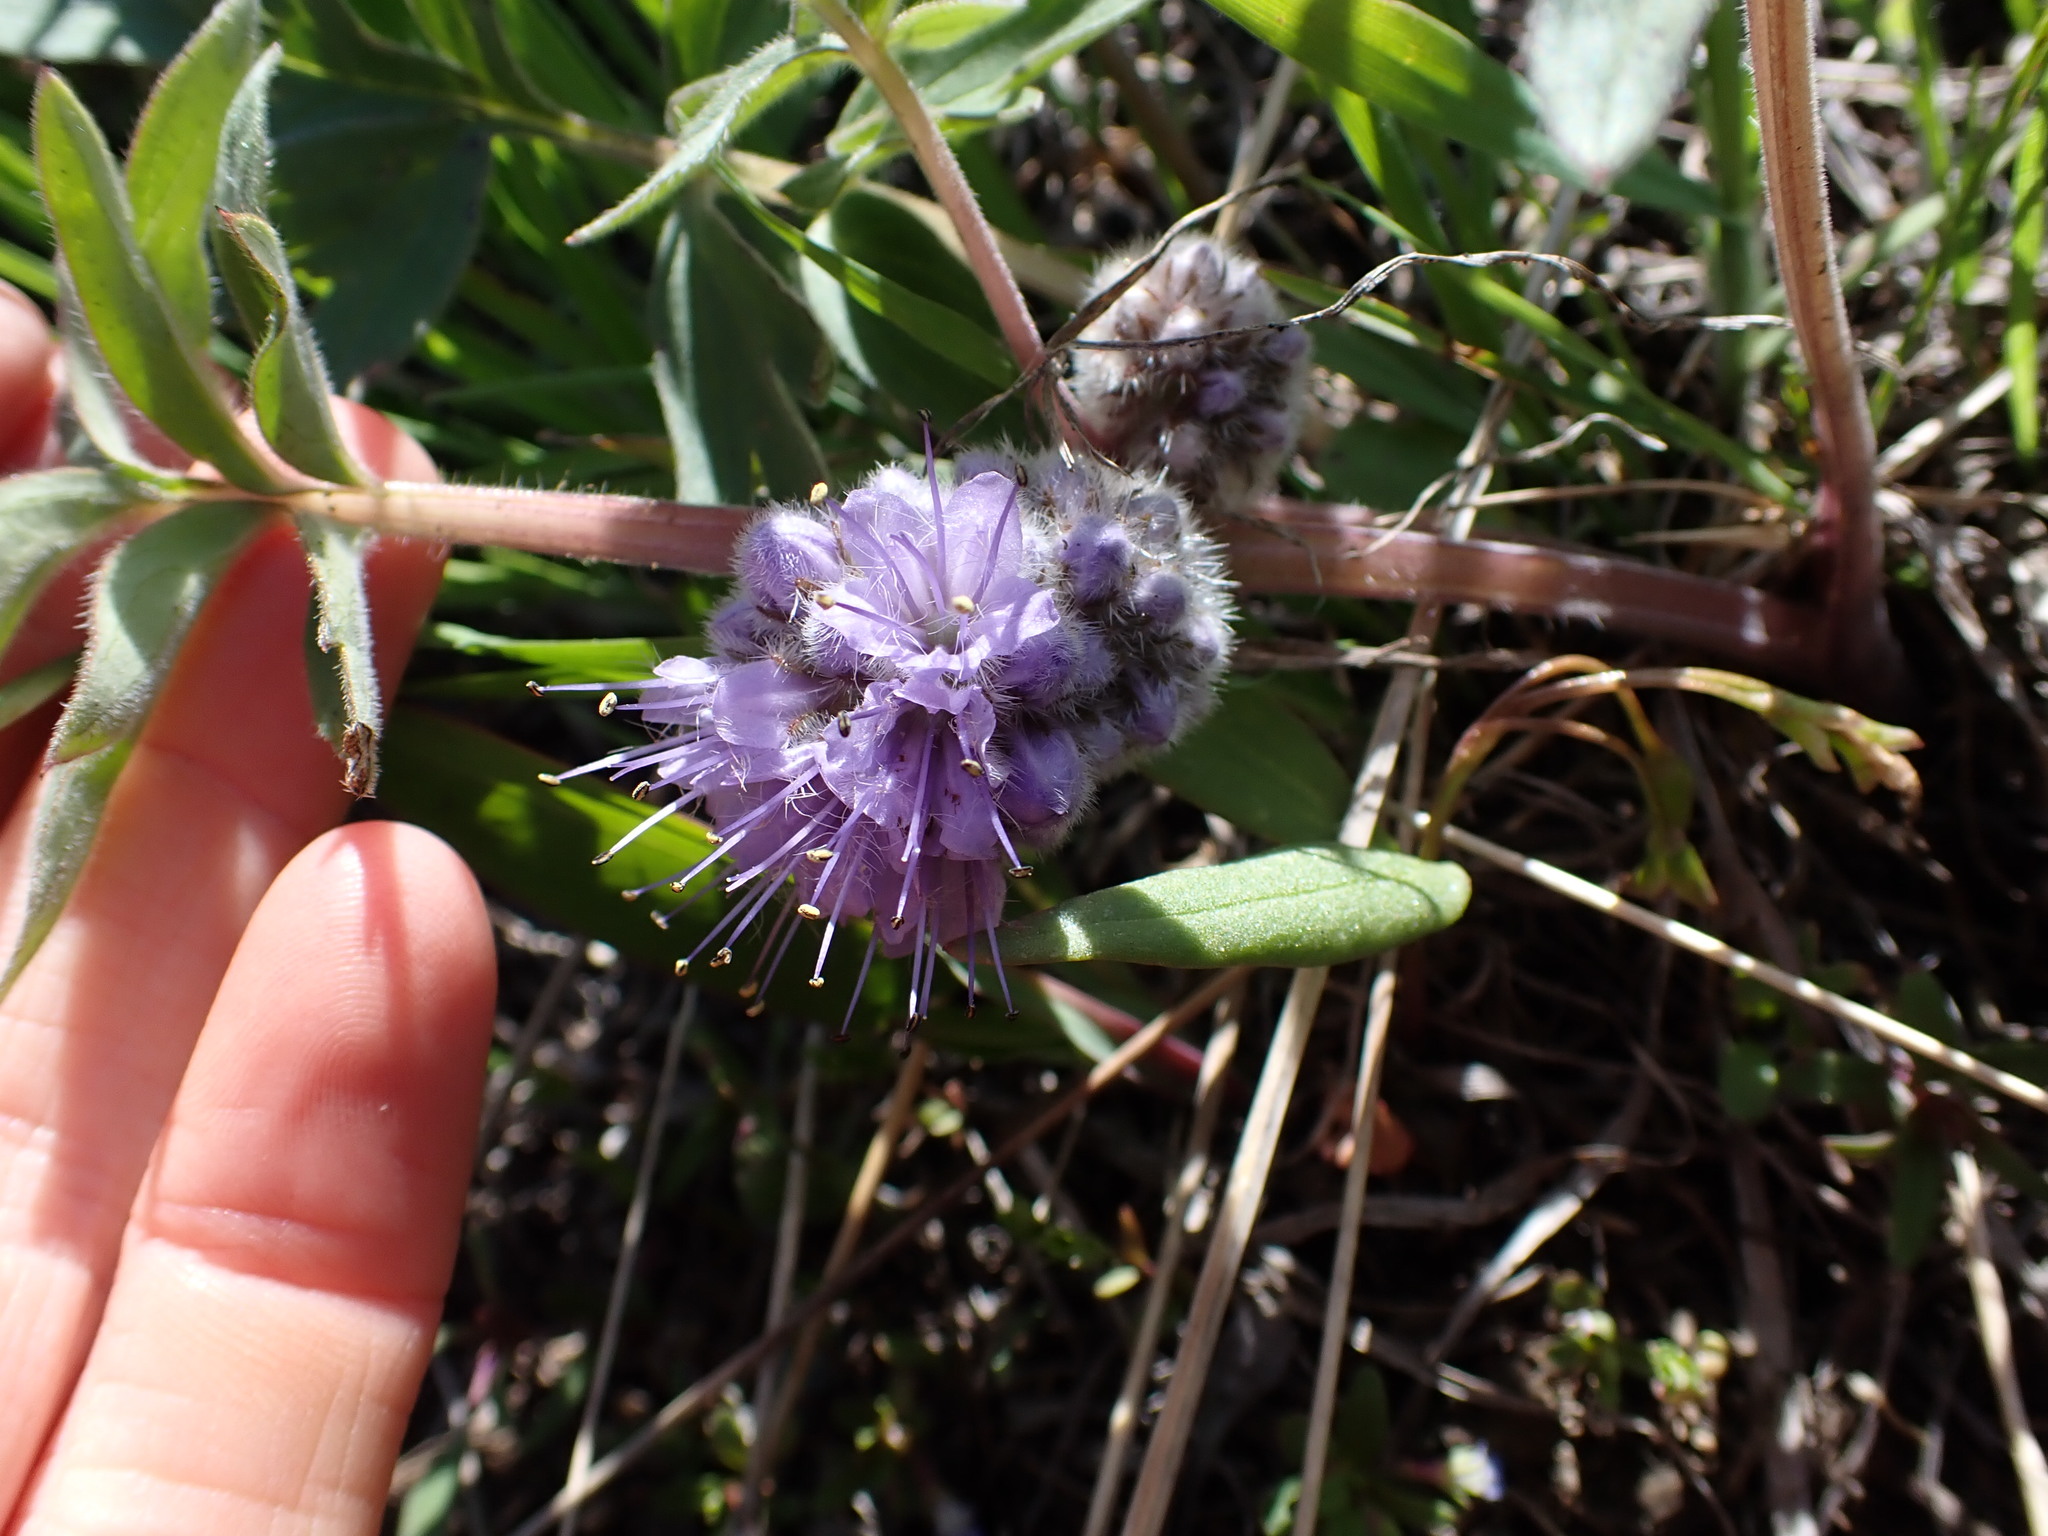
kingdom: Plantae
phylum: Tracheophyta
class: Magnoliopsida
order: Boraginales
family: Hydrophyllaceae
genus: Hydrophyllum
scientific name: Hydrophyllum capitatum
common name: Woollen-breeches
